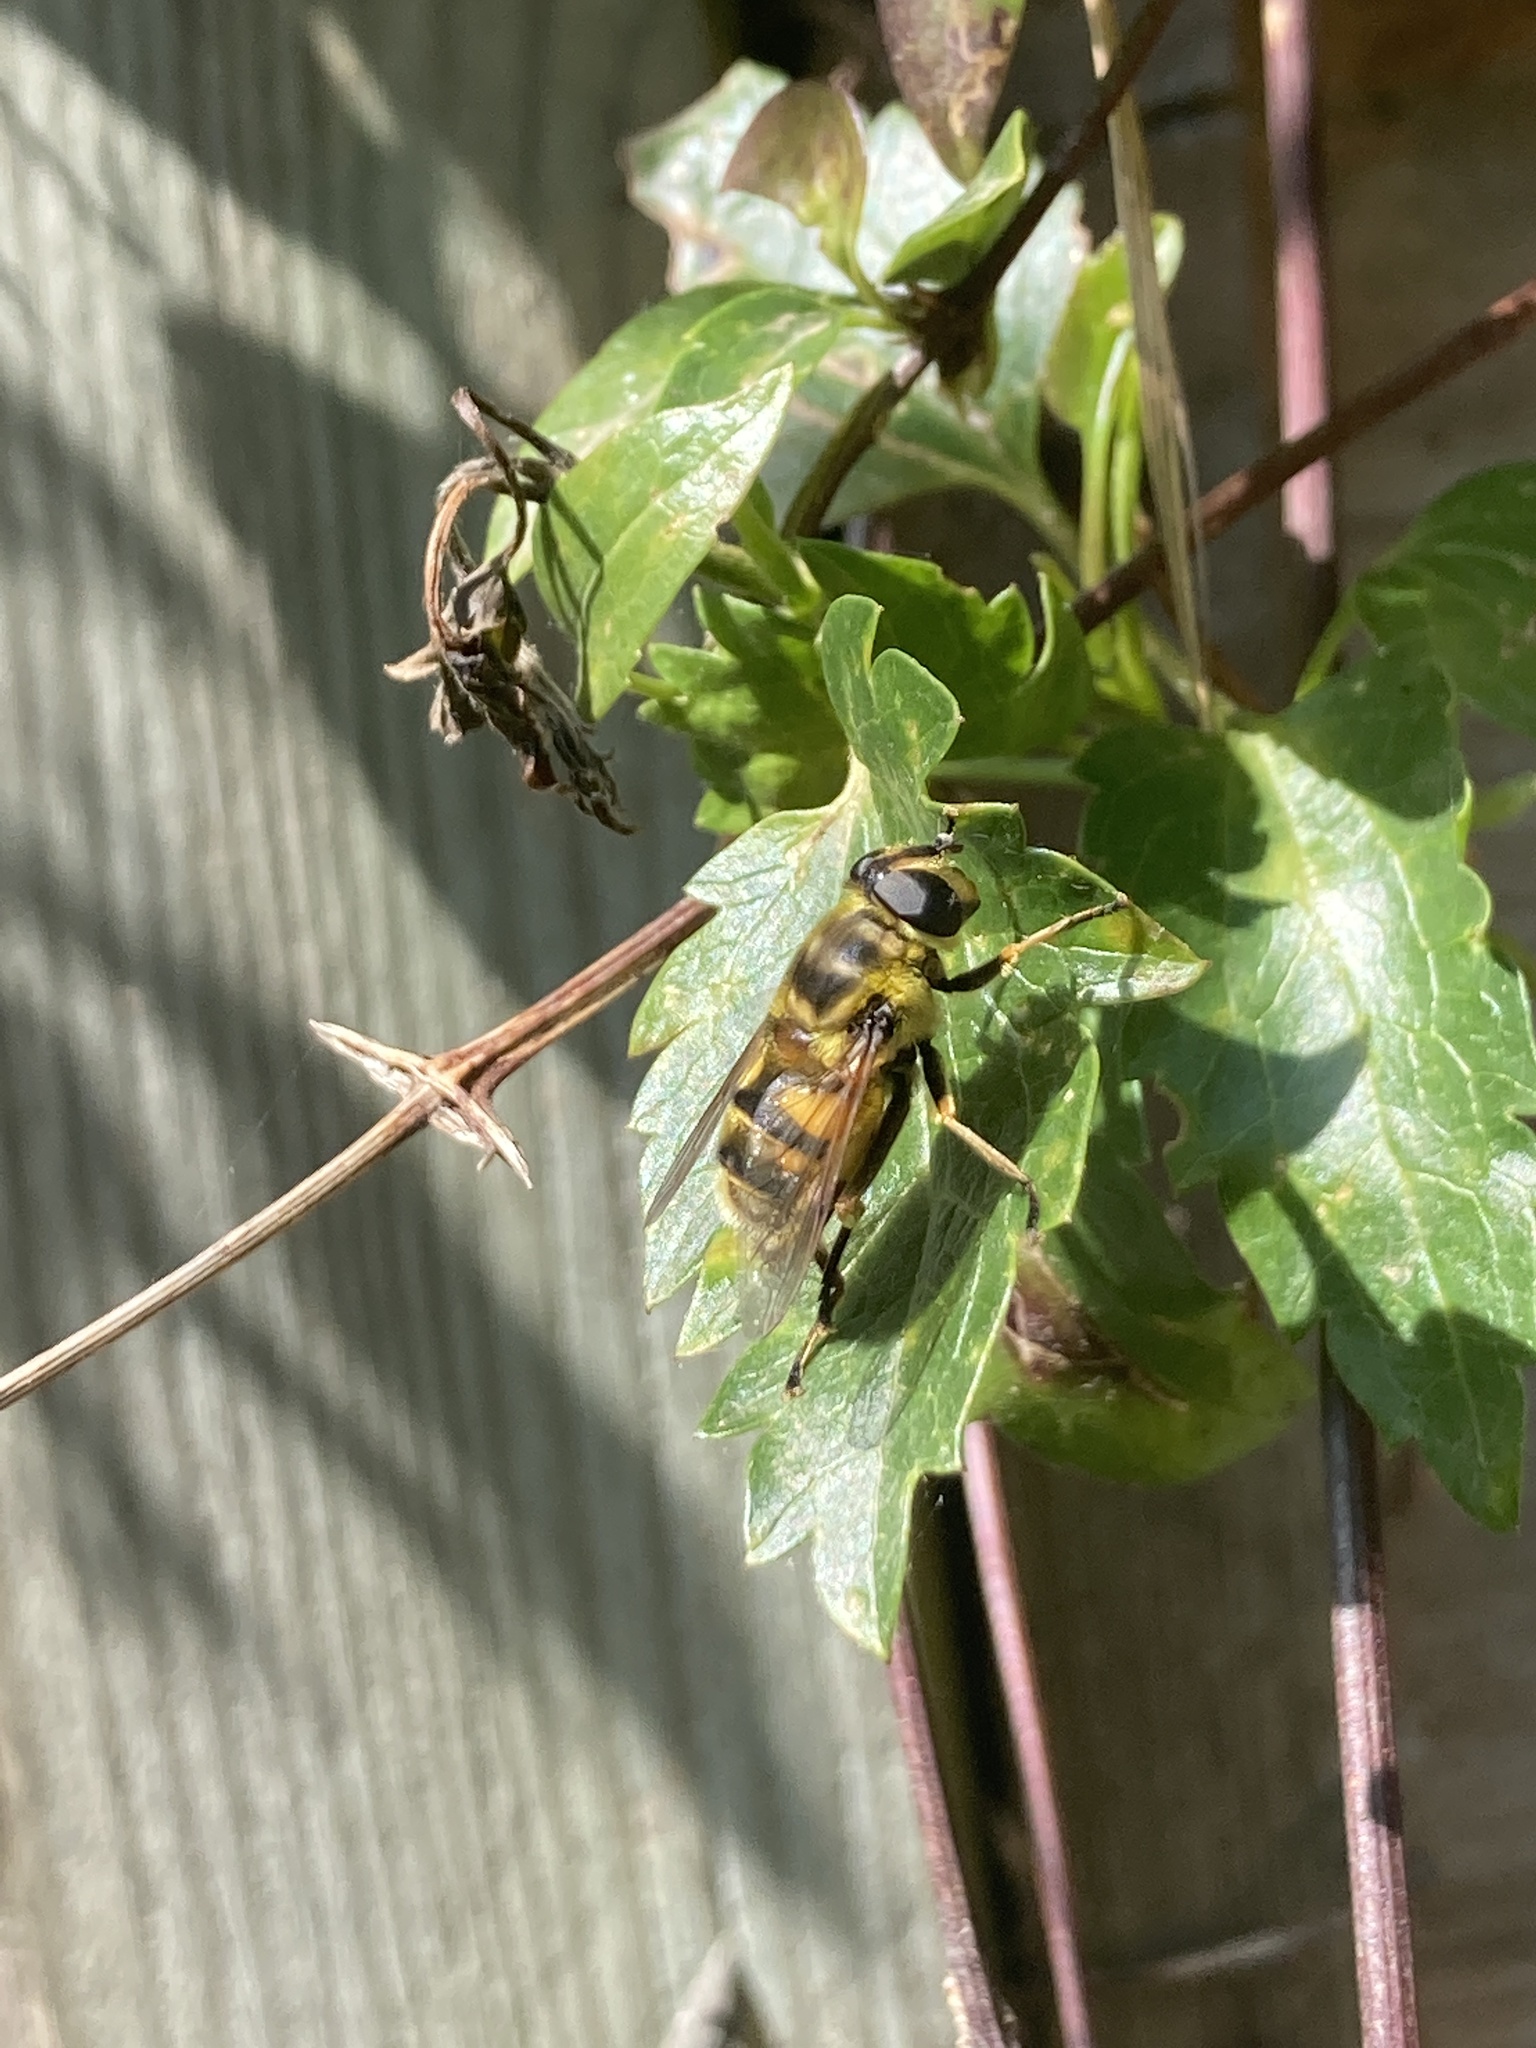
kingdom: Animalia
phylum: Arthropoda
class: Insecta
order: Diptera
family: Syrphidae
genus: Myathropa
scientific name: Myathropa florea
